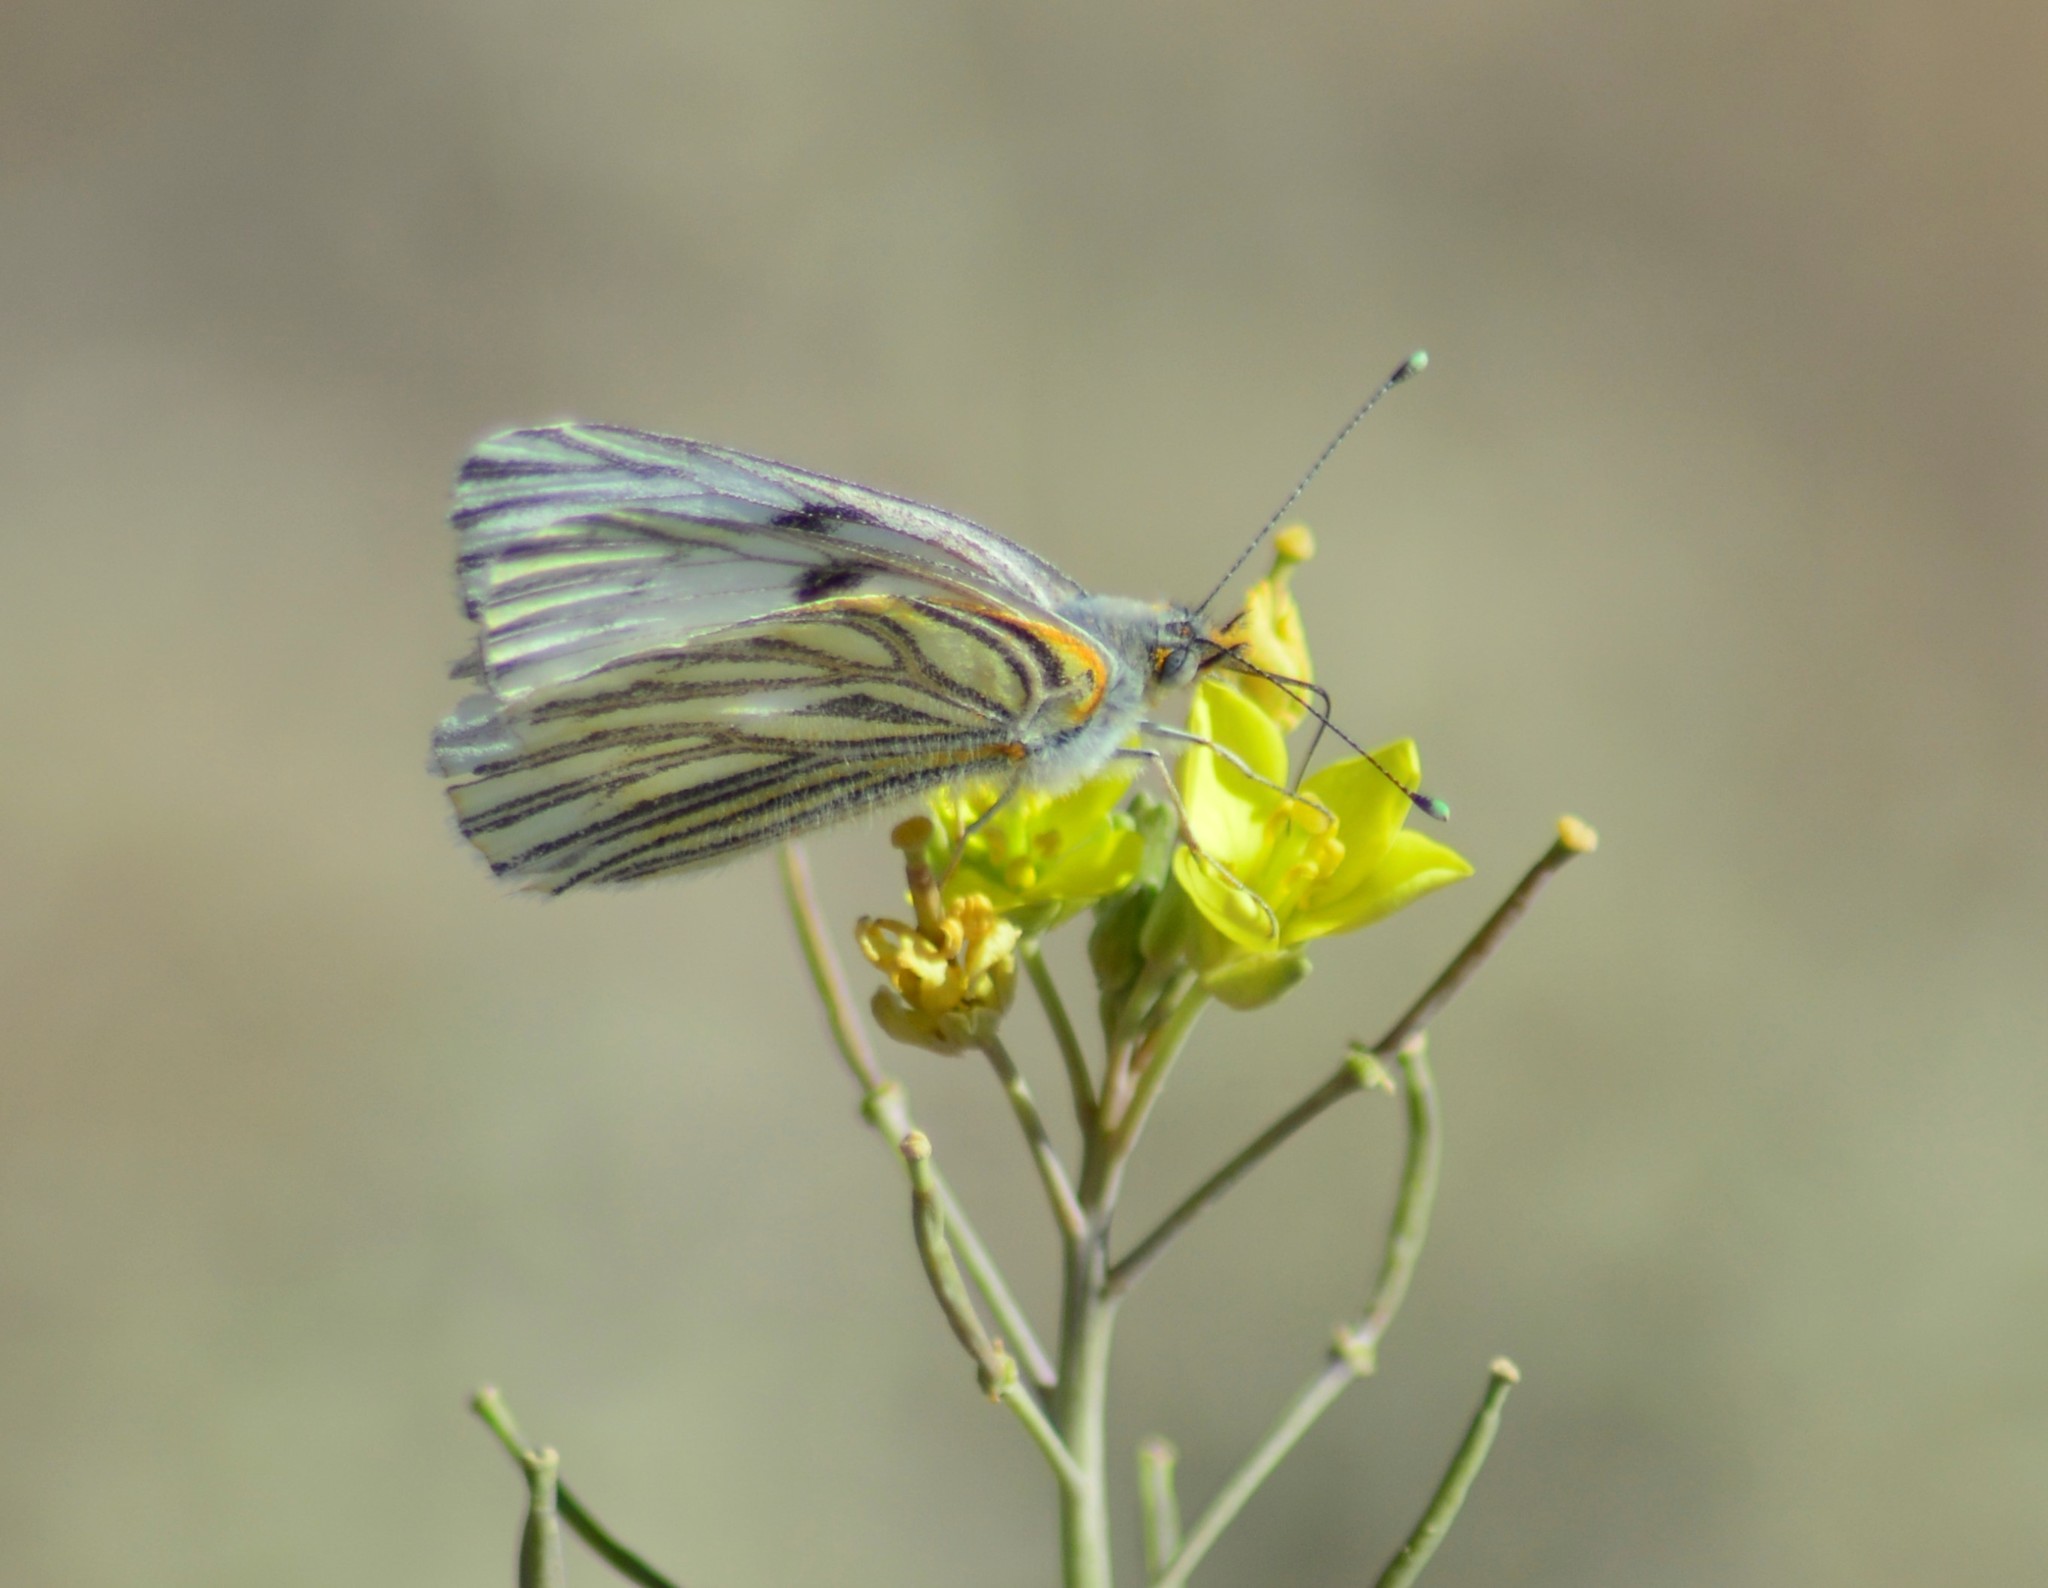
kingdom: Animalia
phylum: Arthropoda
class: Insecta
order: Lepidoptera
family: Pieridae
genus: Tatochila
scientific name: Tatochila mercedis
